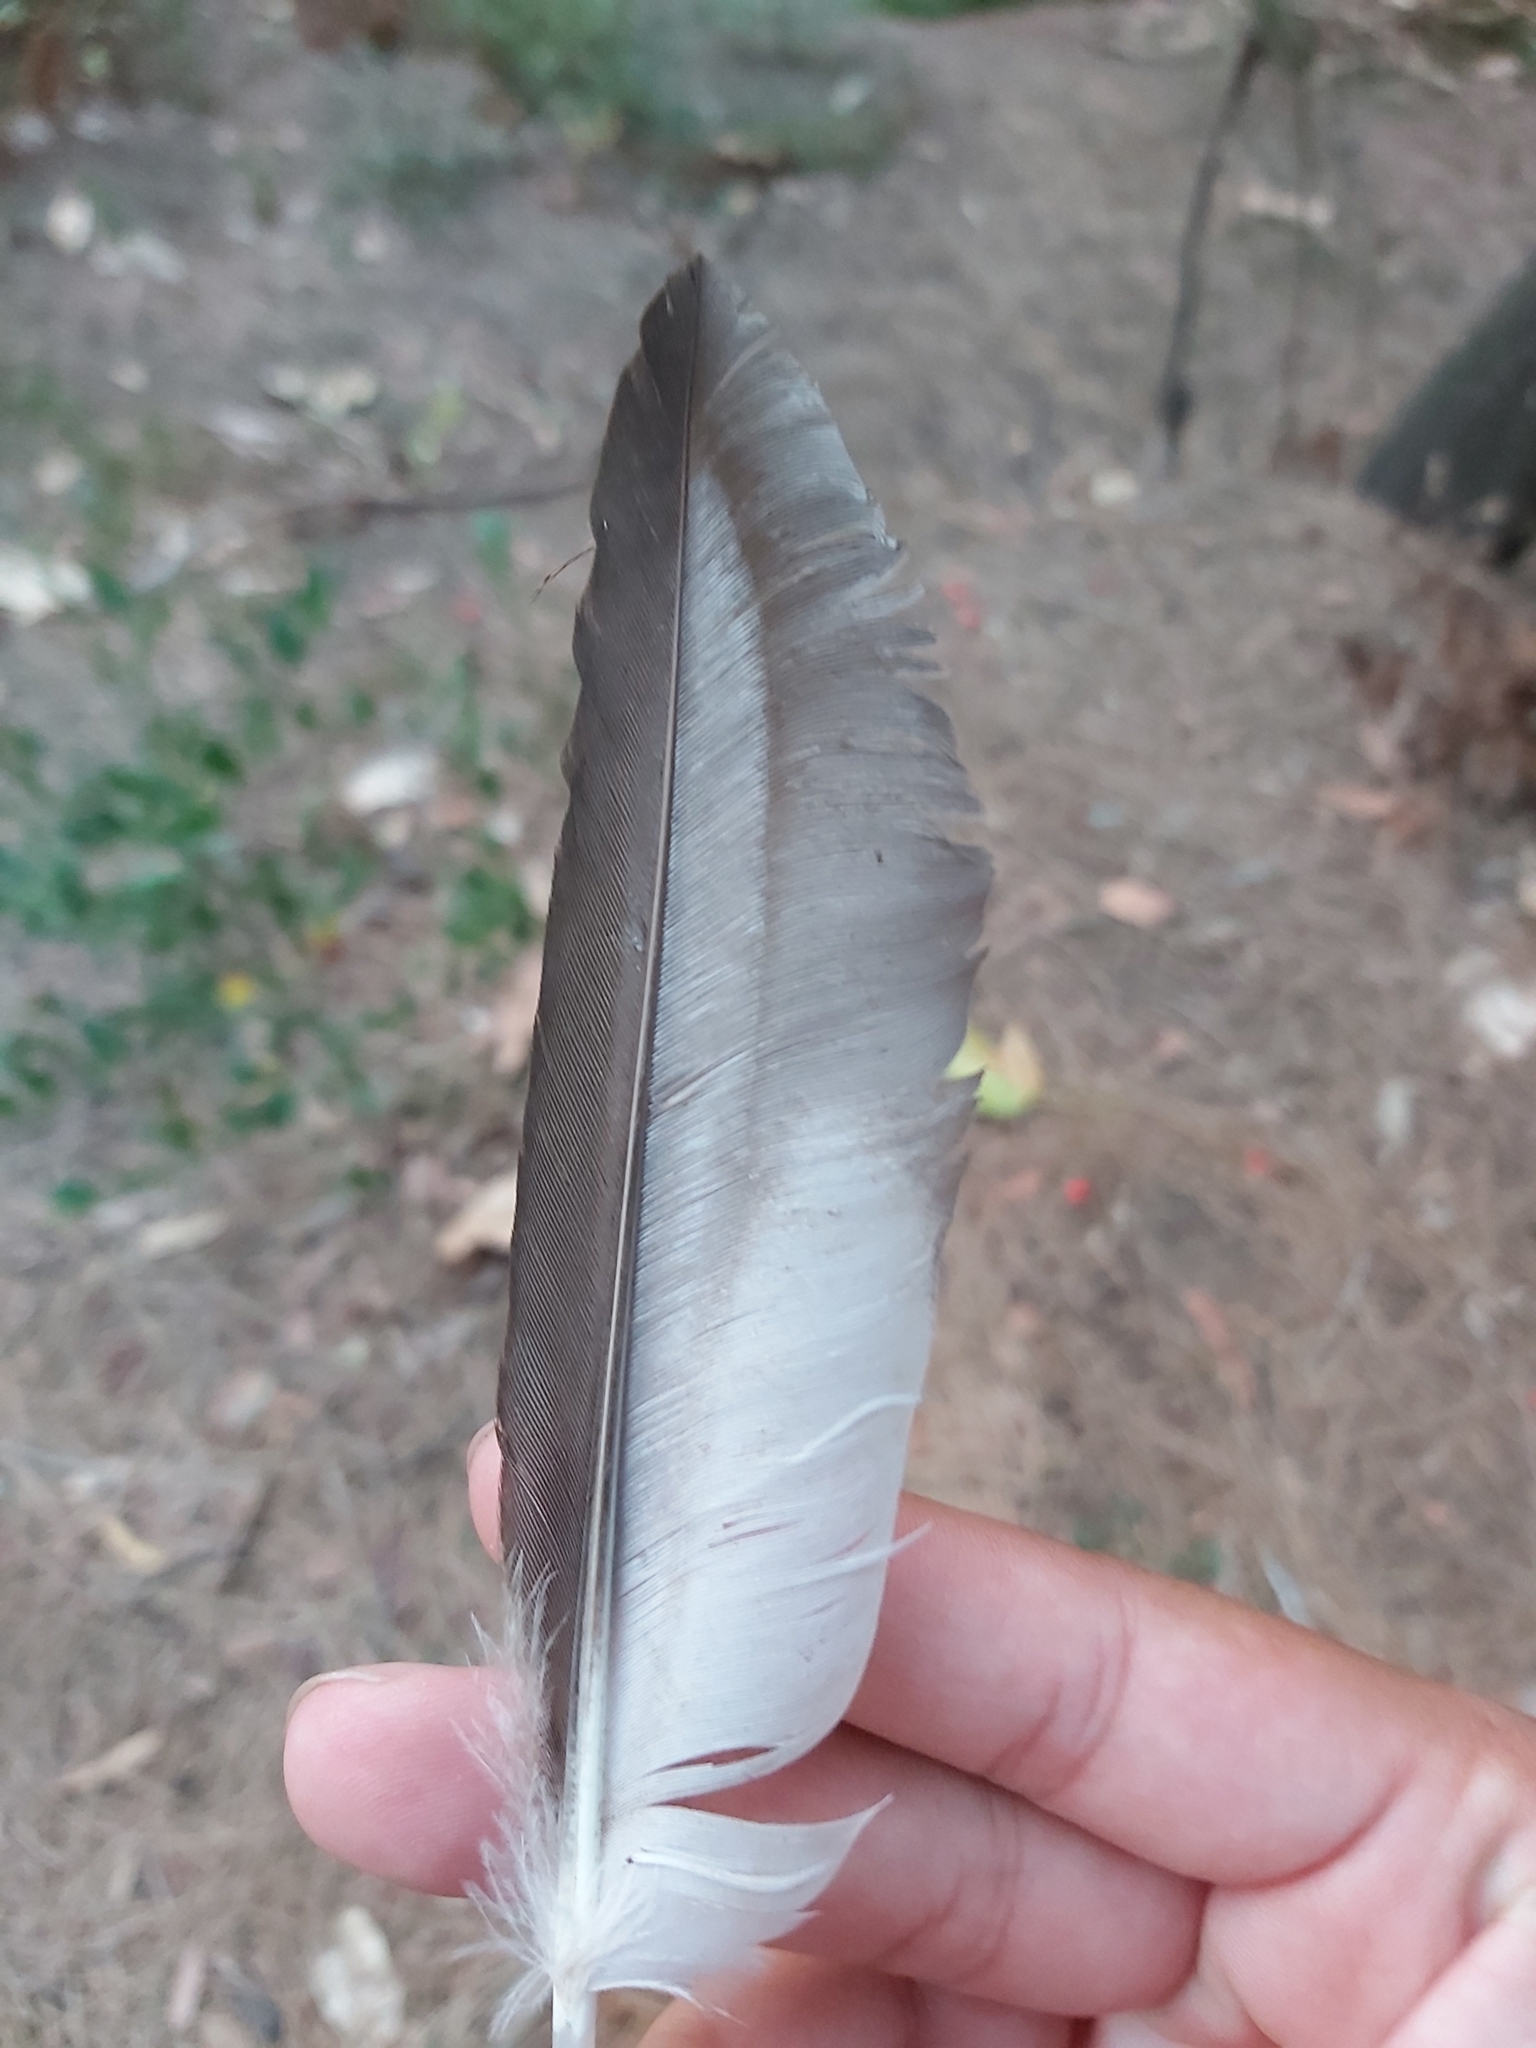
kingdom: Animalia
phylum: Chordata
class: Aves
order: Anseriformes
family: Anatidae
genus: Chenonetta
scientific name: Chenonetta jubata
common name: Maned duck
